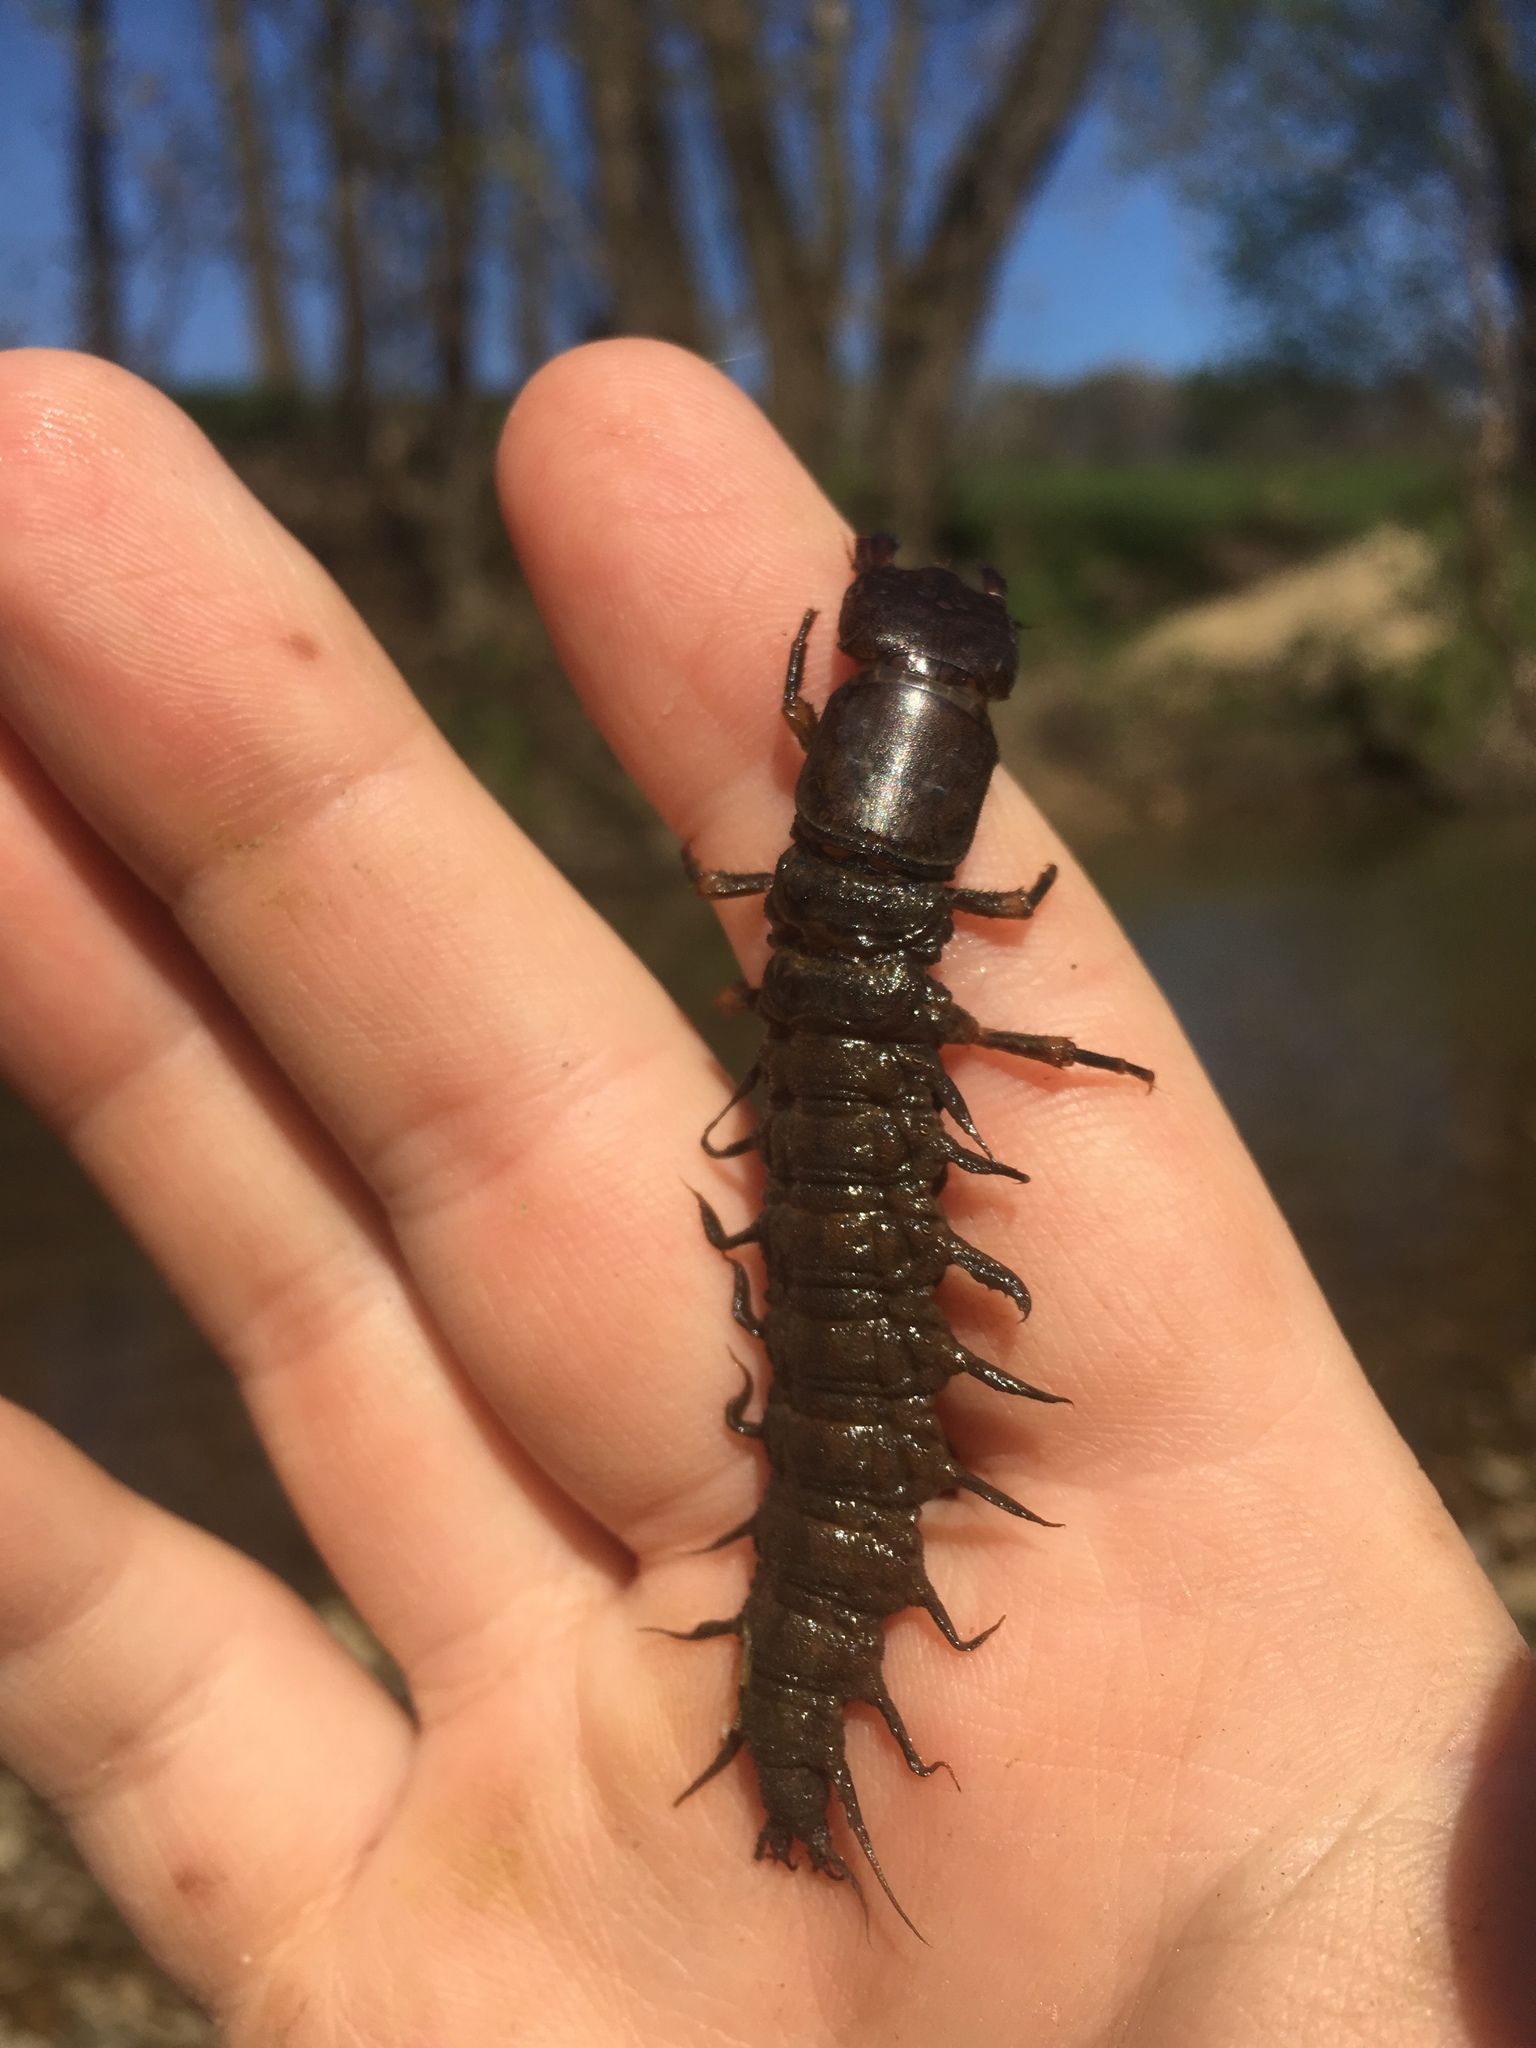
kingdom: Animalia
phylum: Arthropoda
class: Insecta
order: Megaloptera
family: Corydalidae
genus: Corydalus
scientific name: Corydalus cornutus
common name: Dobsonfly
